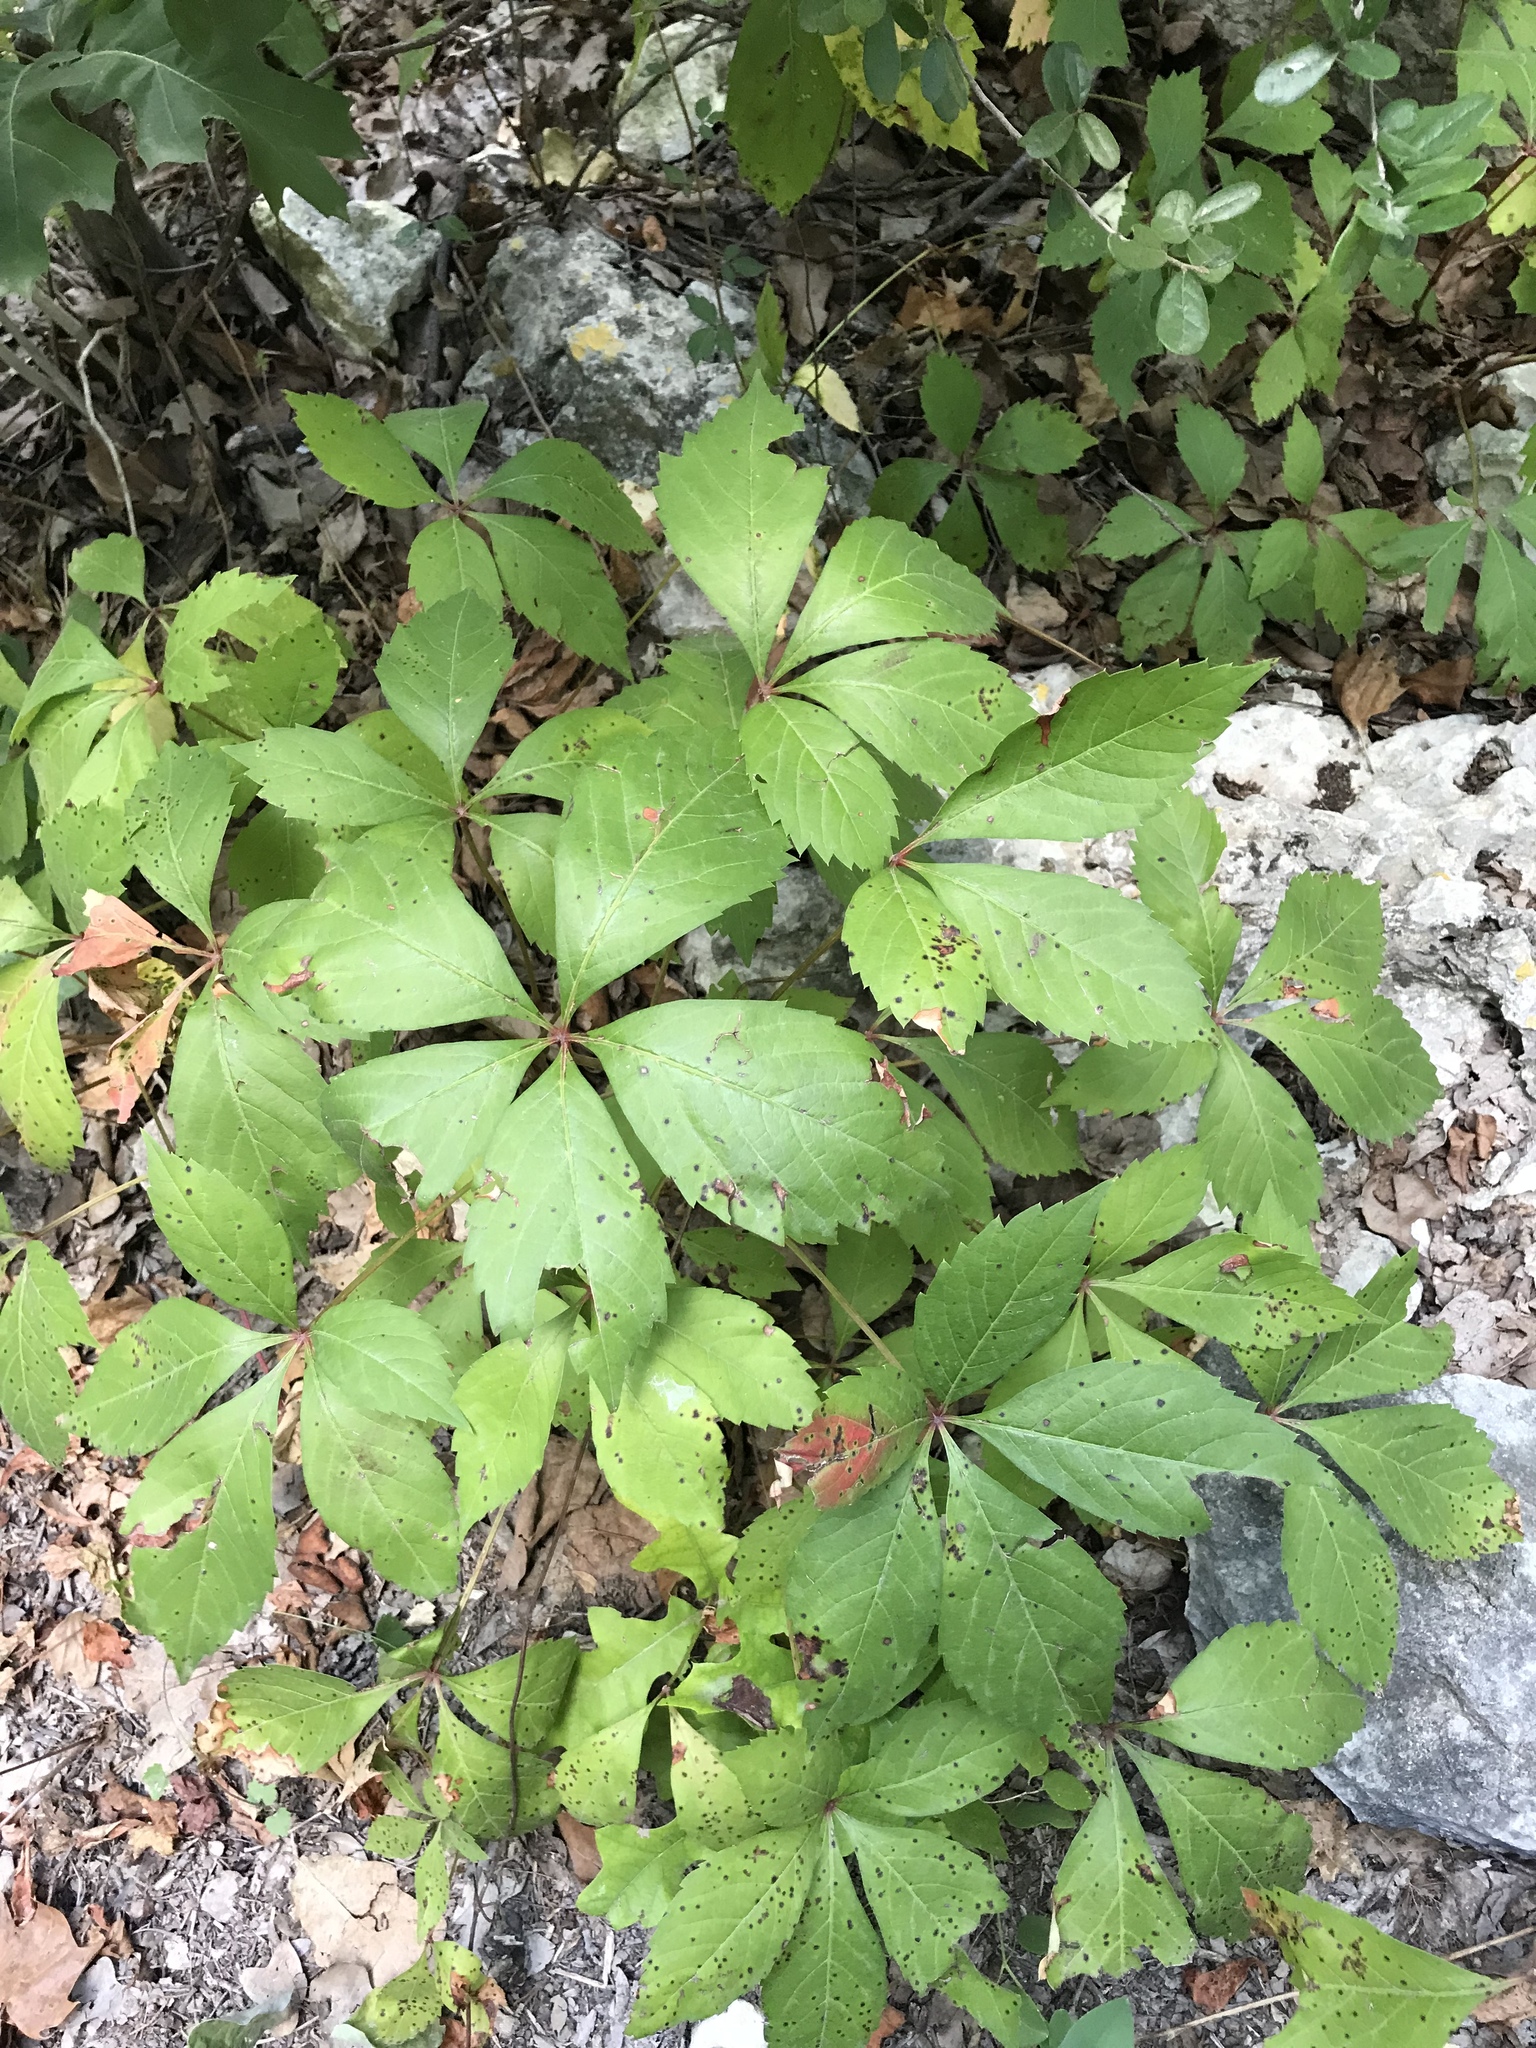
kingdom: Plantae
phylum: Tracheophyta
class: Magnoliopsida
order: Vitales
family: Vitaceae
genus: Parthenocissus
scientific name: Parthenocissus quinquefolia
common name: Virginia-creeper
